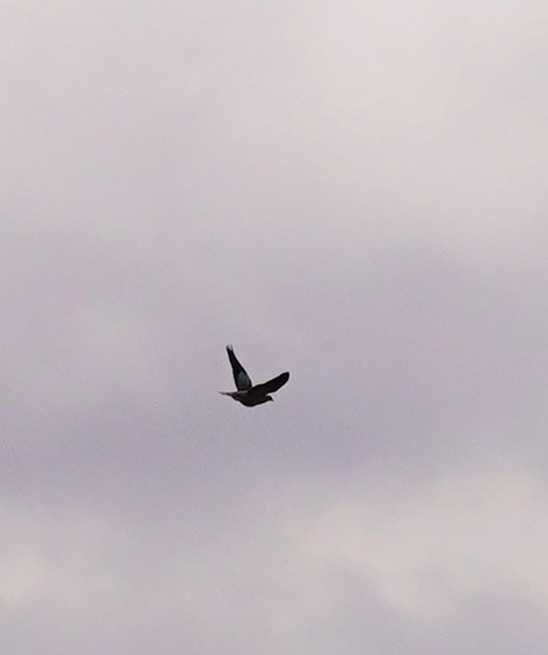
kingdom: Animalia
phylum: Chordata
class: Aves
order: Columbiformes
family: Columbidae
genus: Patagioenas
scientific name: Patagioenas fasciata
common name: Band-tailed pigeon
